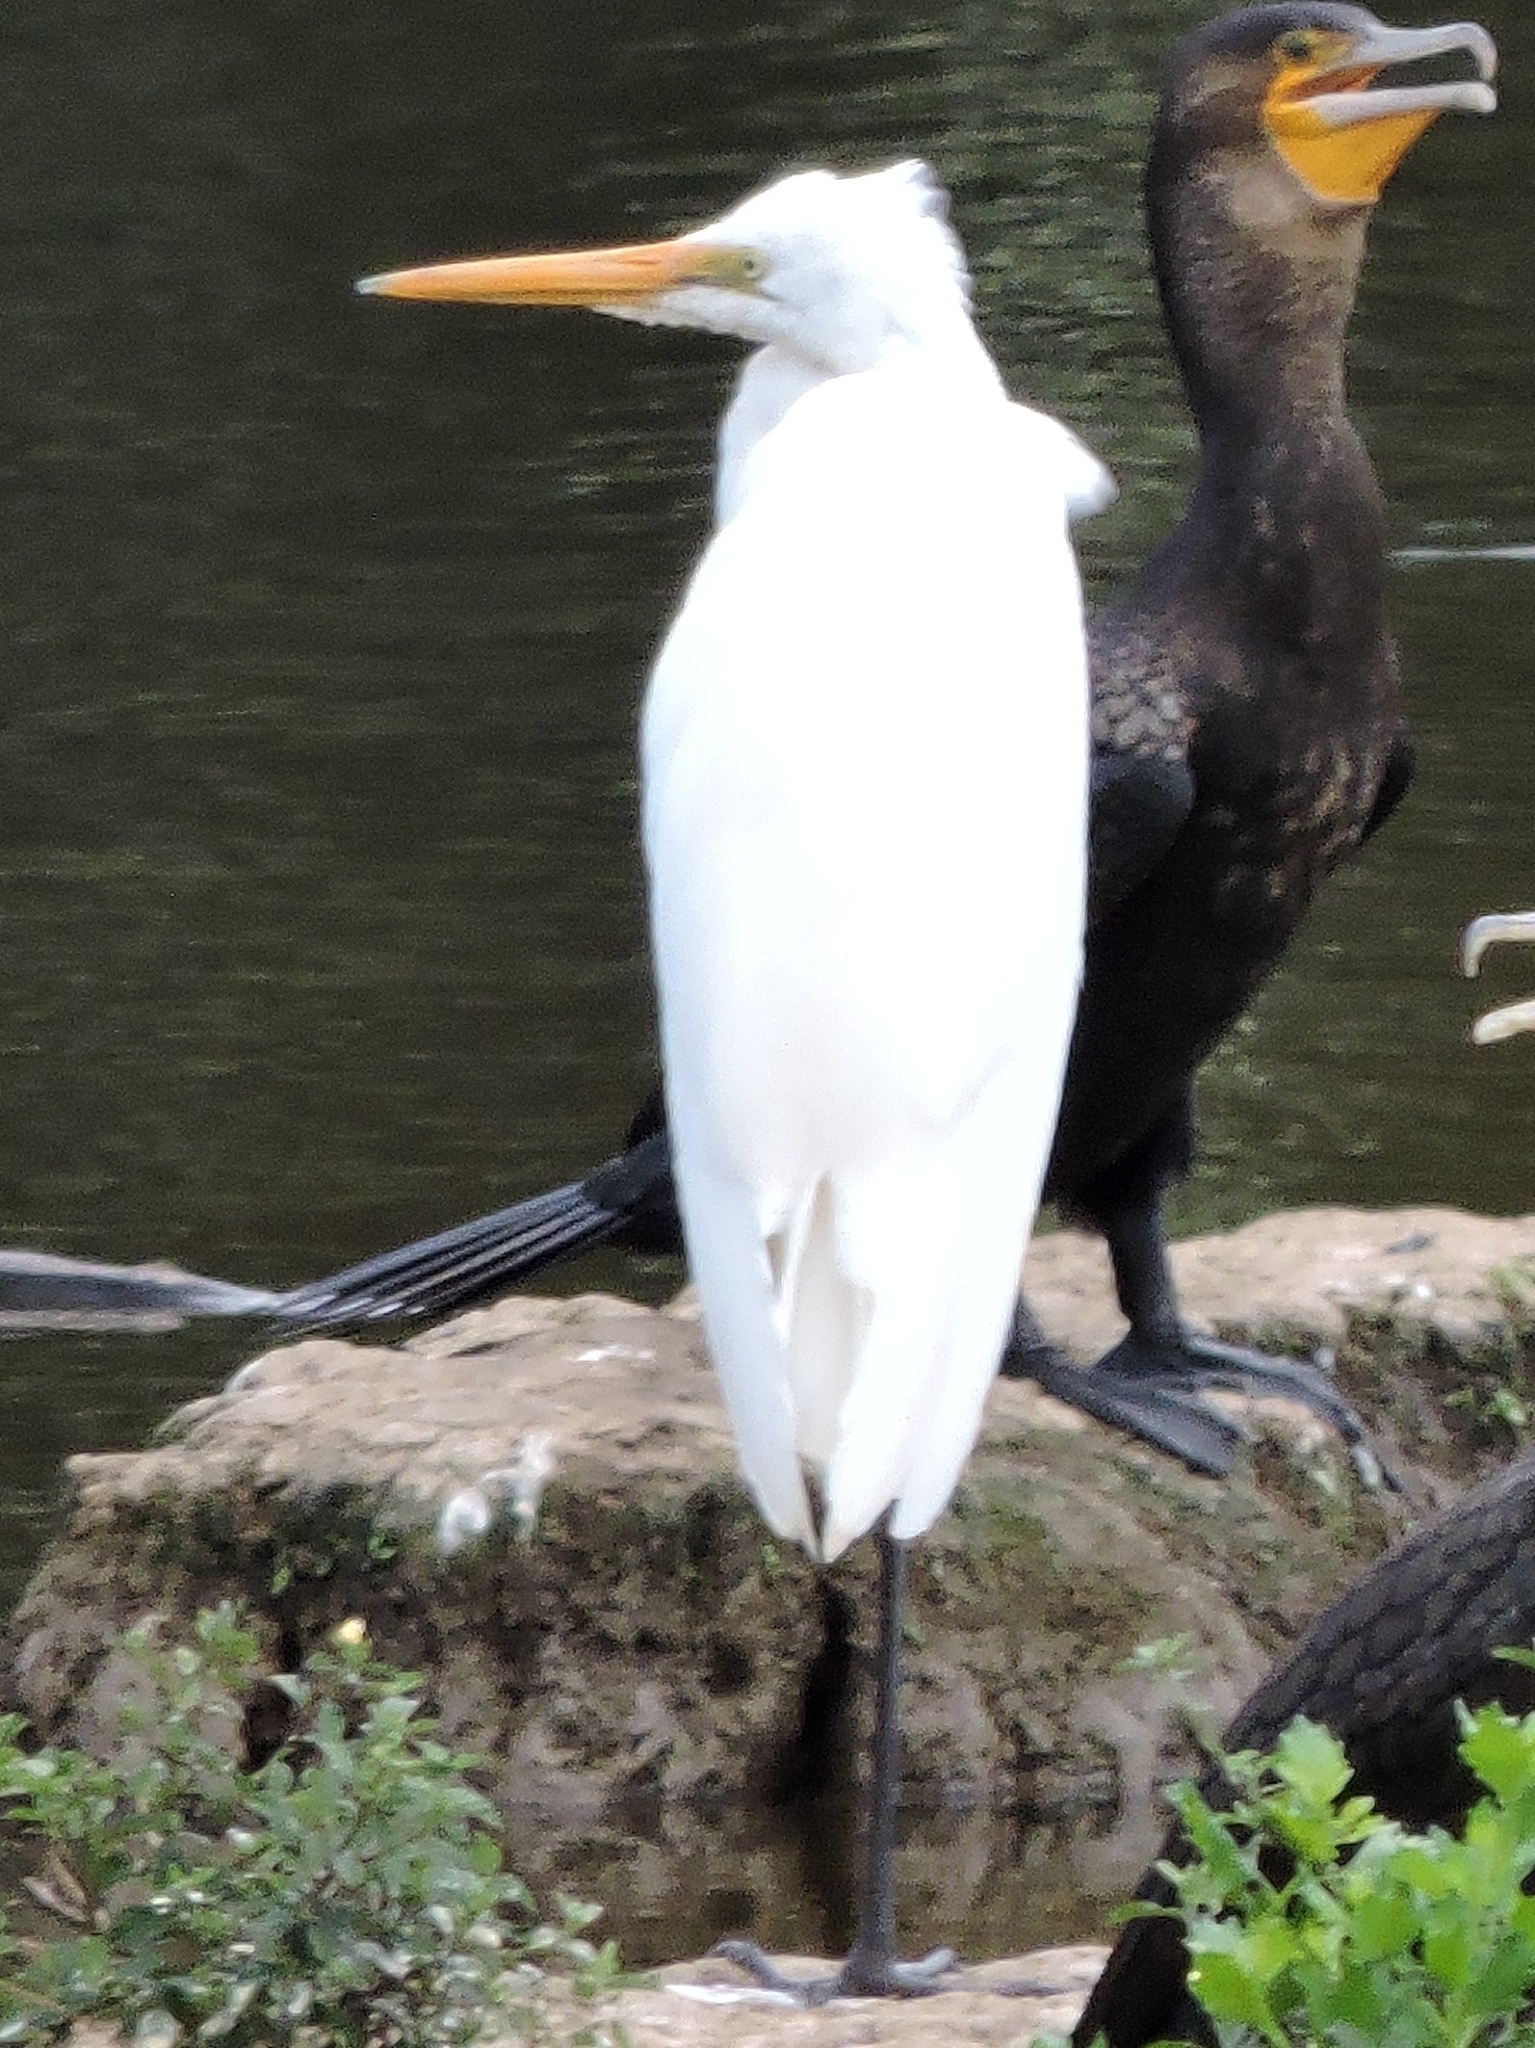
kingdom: Animalia
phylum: Chordata
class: Aves
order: Pelecaniformes
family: Ardeidae
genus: Ardea
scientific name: Ardea alba
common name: Great egret
